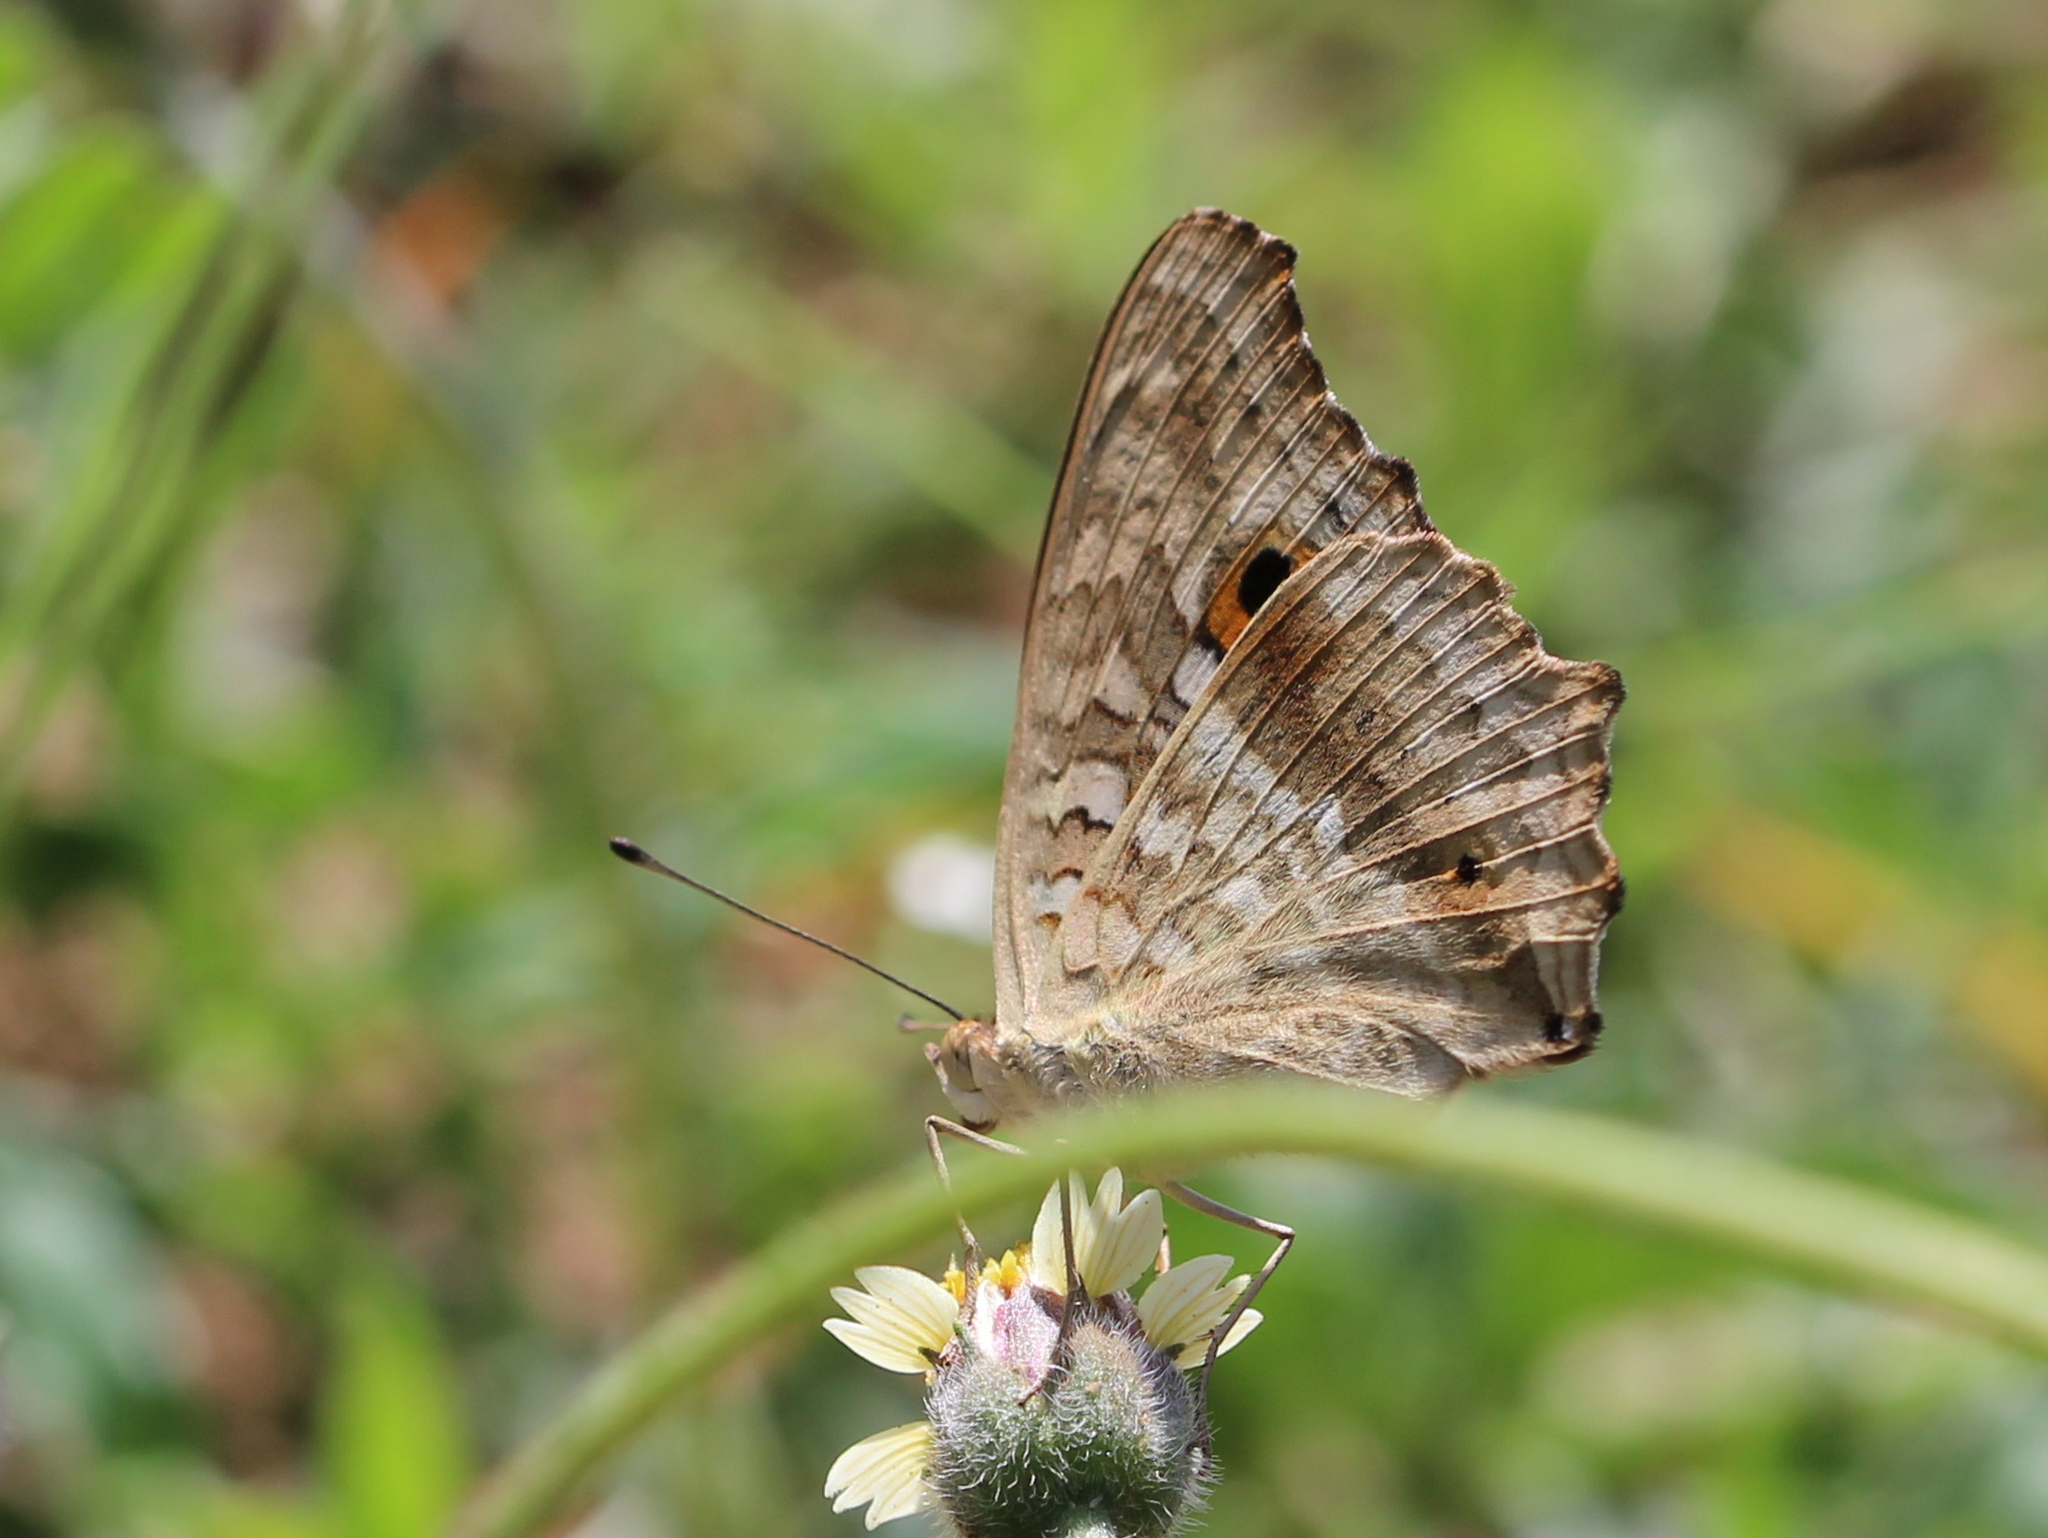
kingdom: Animalia
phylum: Arthropoda
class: Insecta
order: Lepidoptera
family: Nymphalidae
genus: Junonia
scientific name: Junonia lemonias
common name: Lemon pansy
